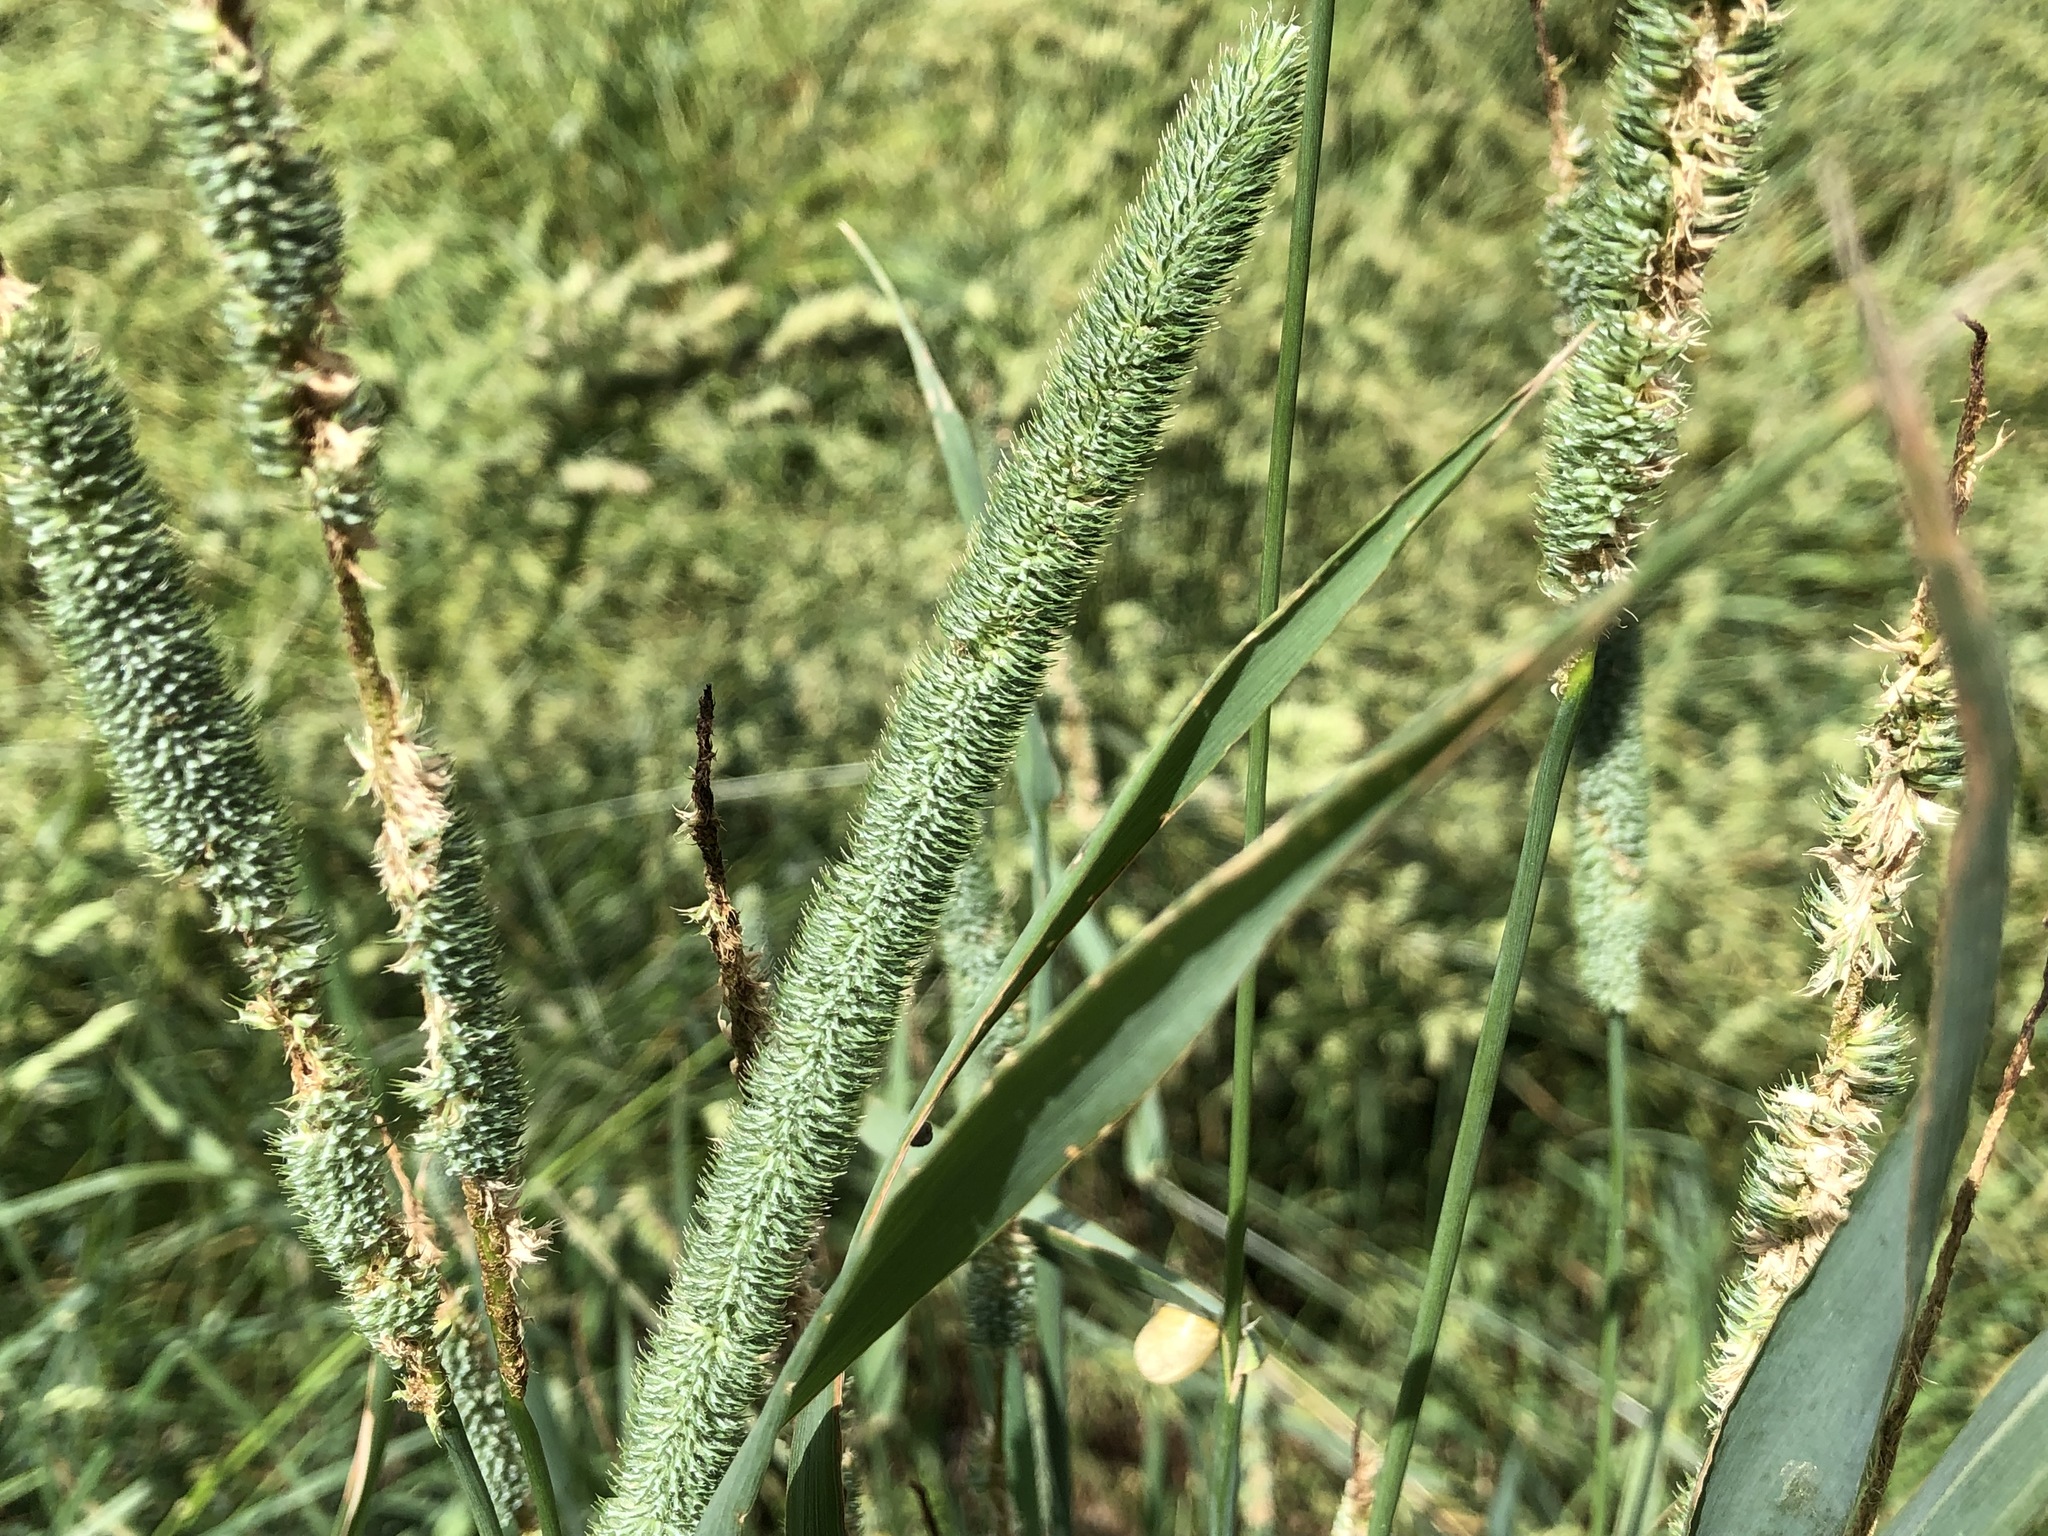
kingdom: Plantae
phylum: Tracheophyta
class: Liliopsida
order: Poales
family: Poaceae
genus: Phleum
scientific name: Phleum pratense
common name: Timothy grass
